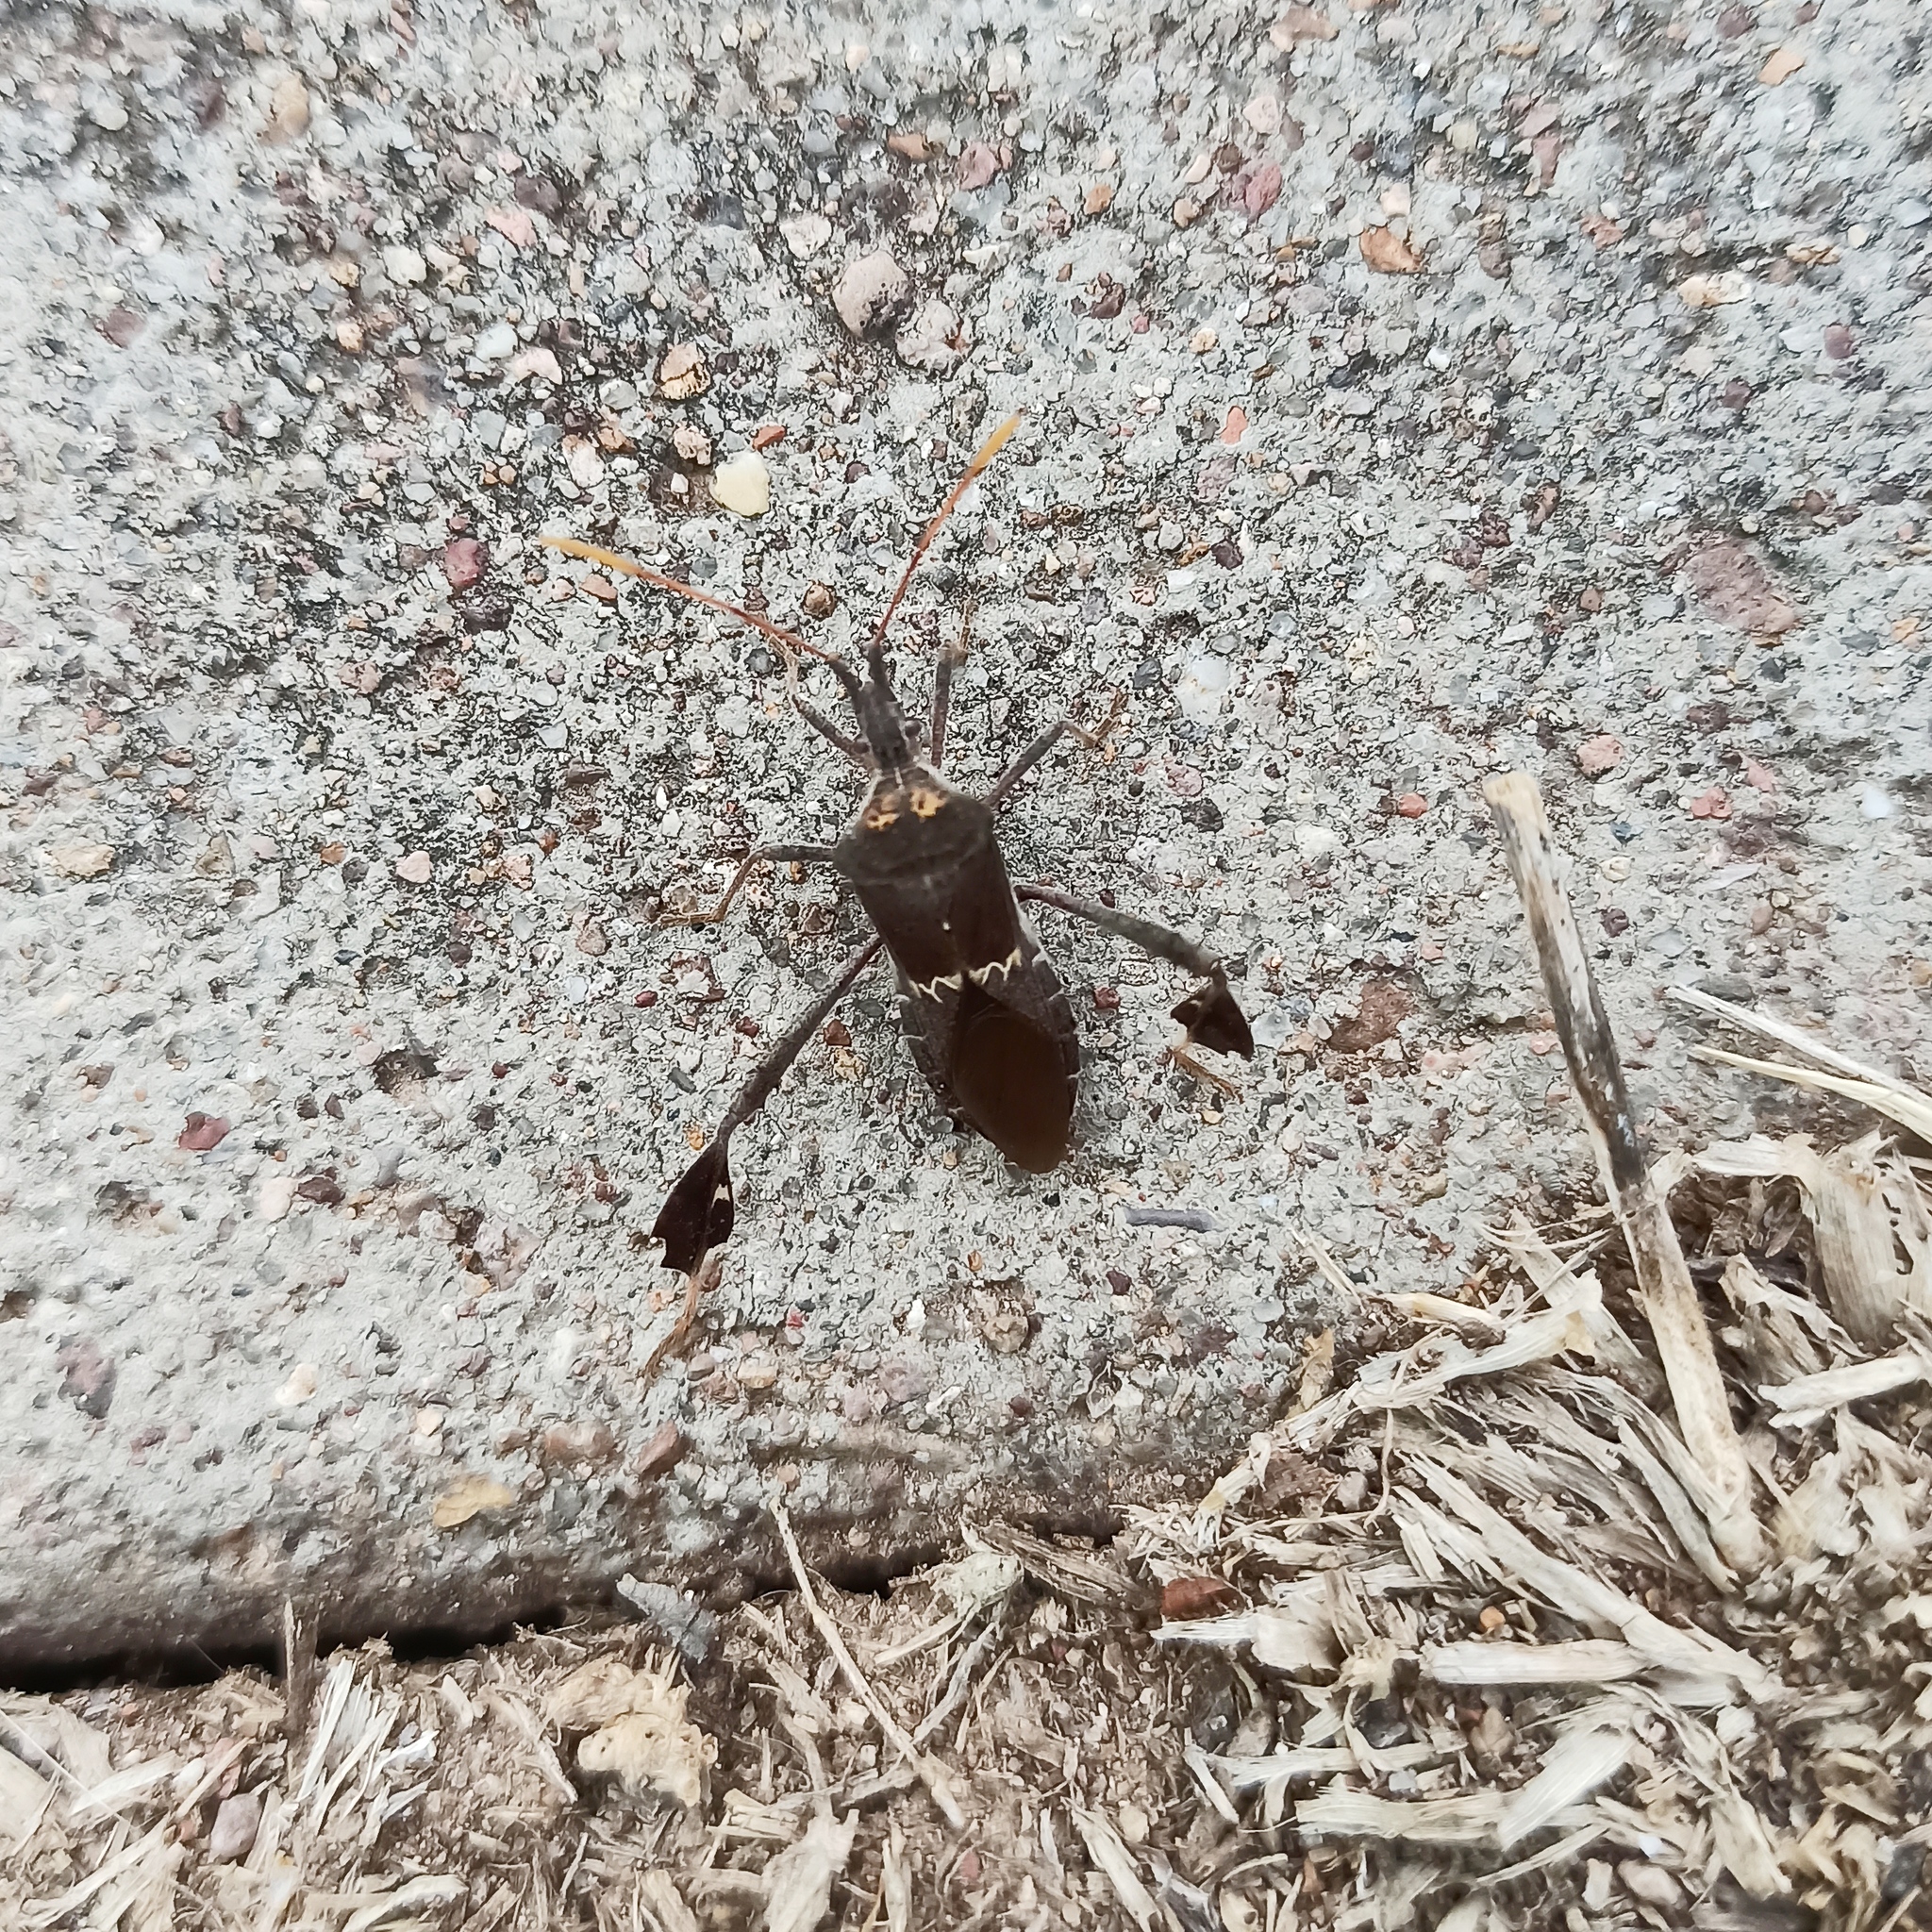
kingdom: Animalia
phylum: Arthropoda
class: Insecta
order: Hemiptera
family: Coreidae
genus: Leptoglossus
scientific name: Leptoglossus zonatus
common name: Large-legged bug
